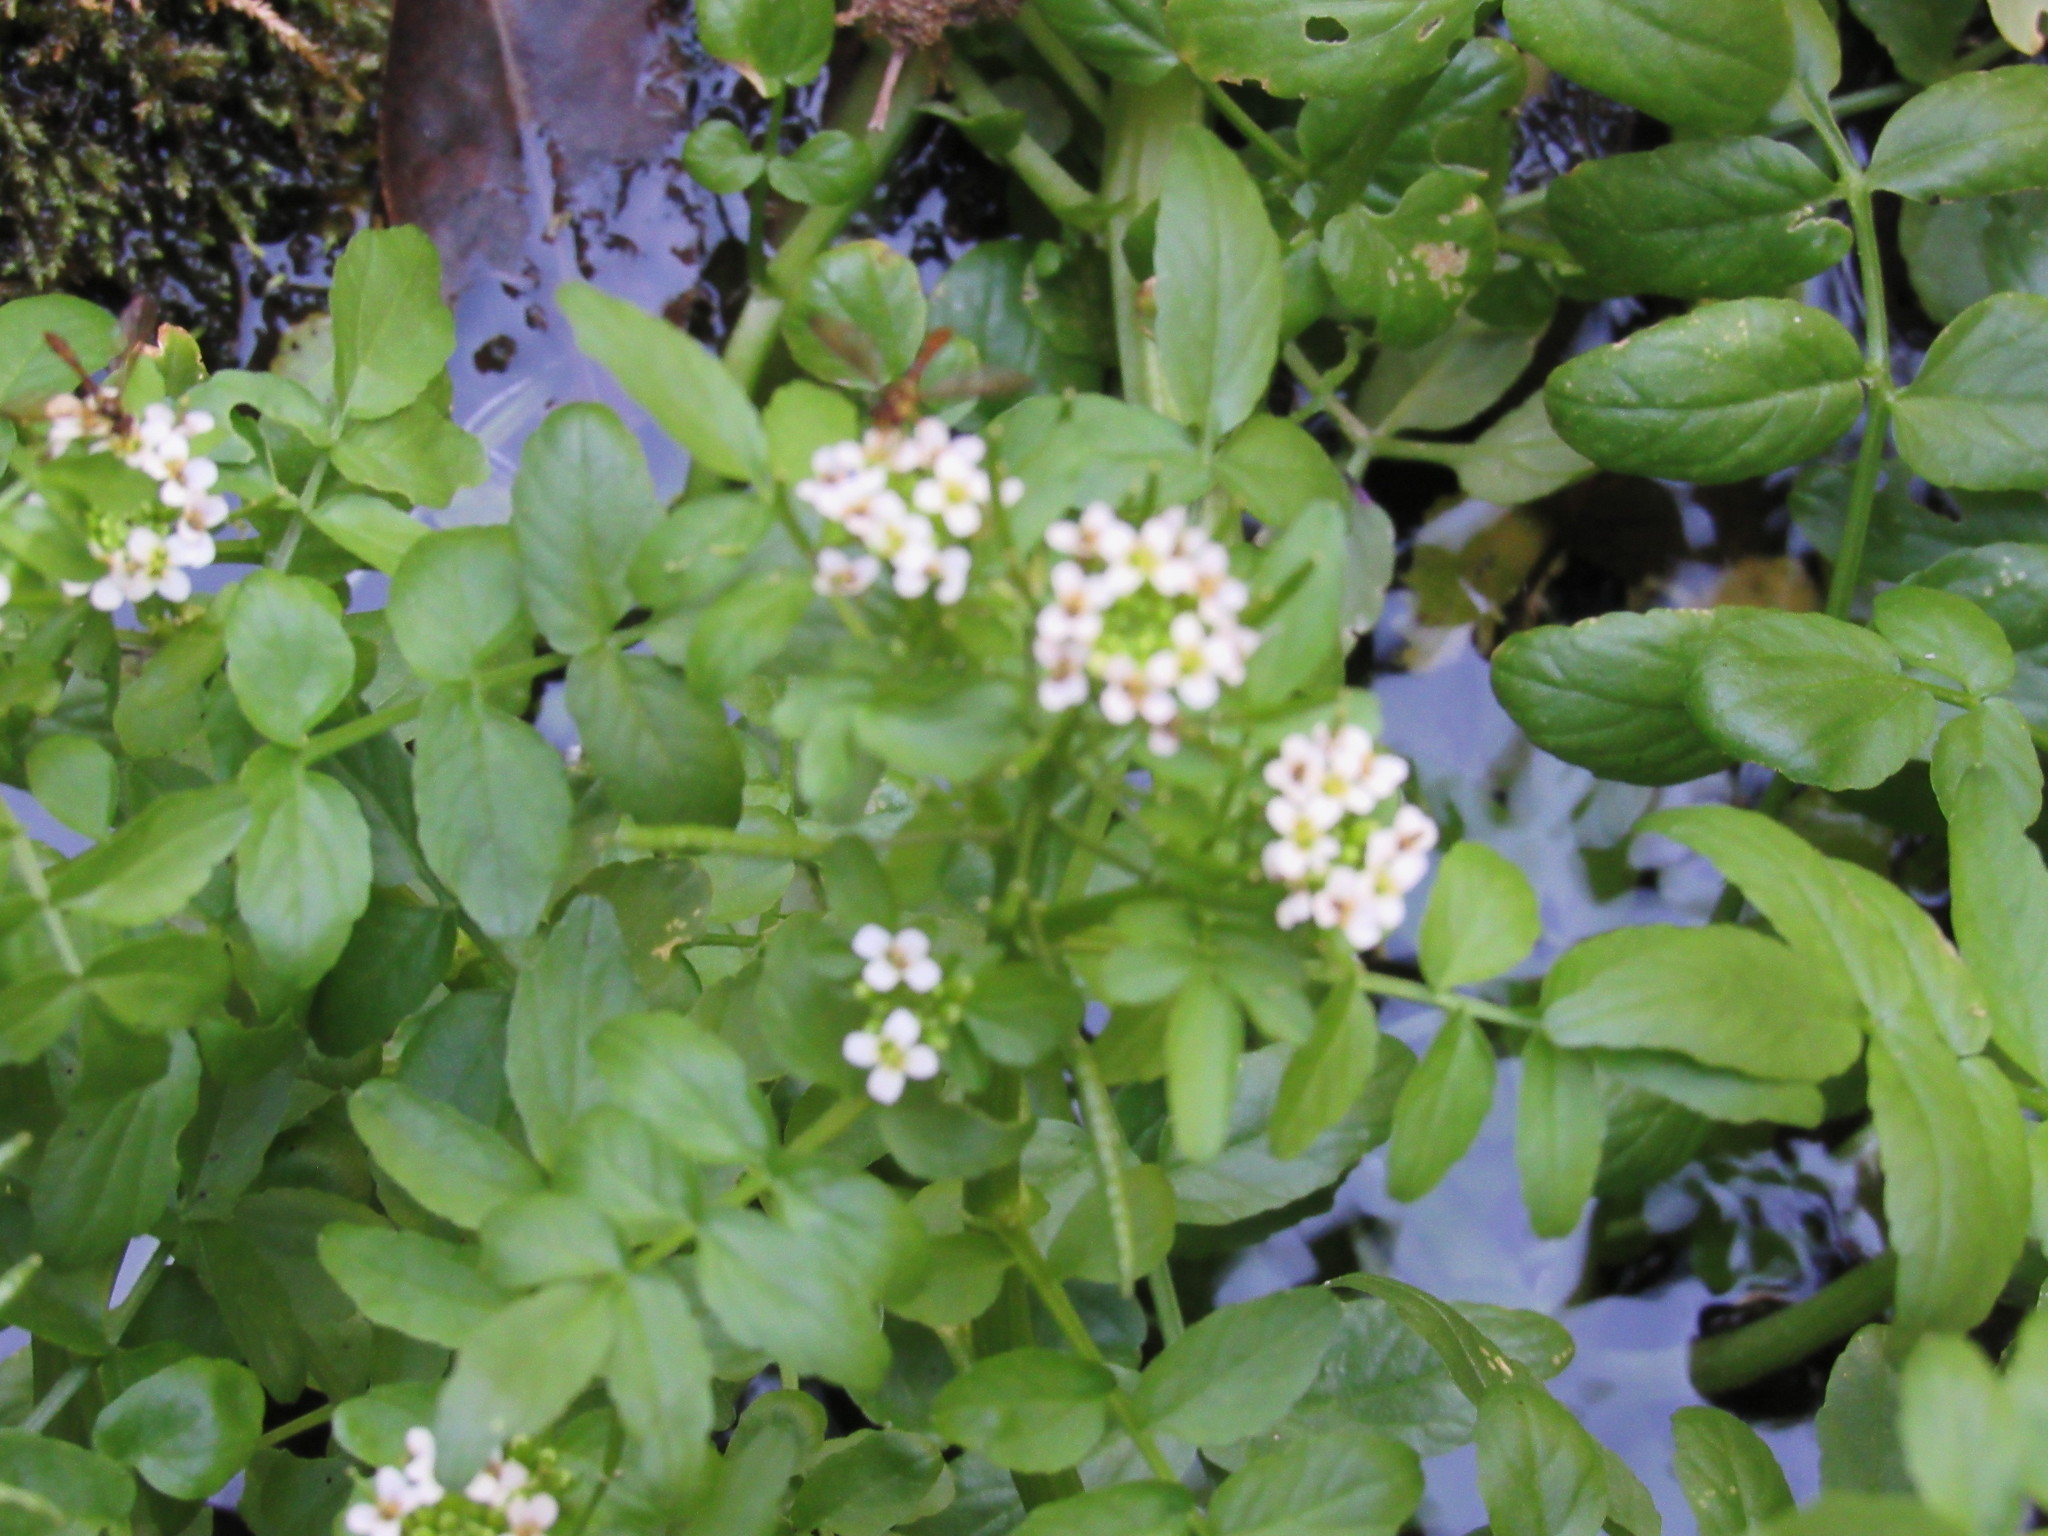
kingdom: Plantae
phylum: Tracheophyta
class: Magnoliopsida
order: Brassicales
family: Brassicaceae
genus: Nasturtium
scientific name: Nasturtium officinale
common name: Watercress
